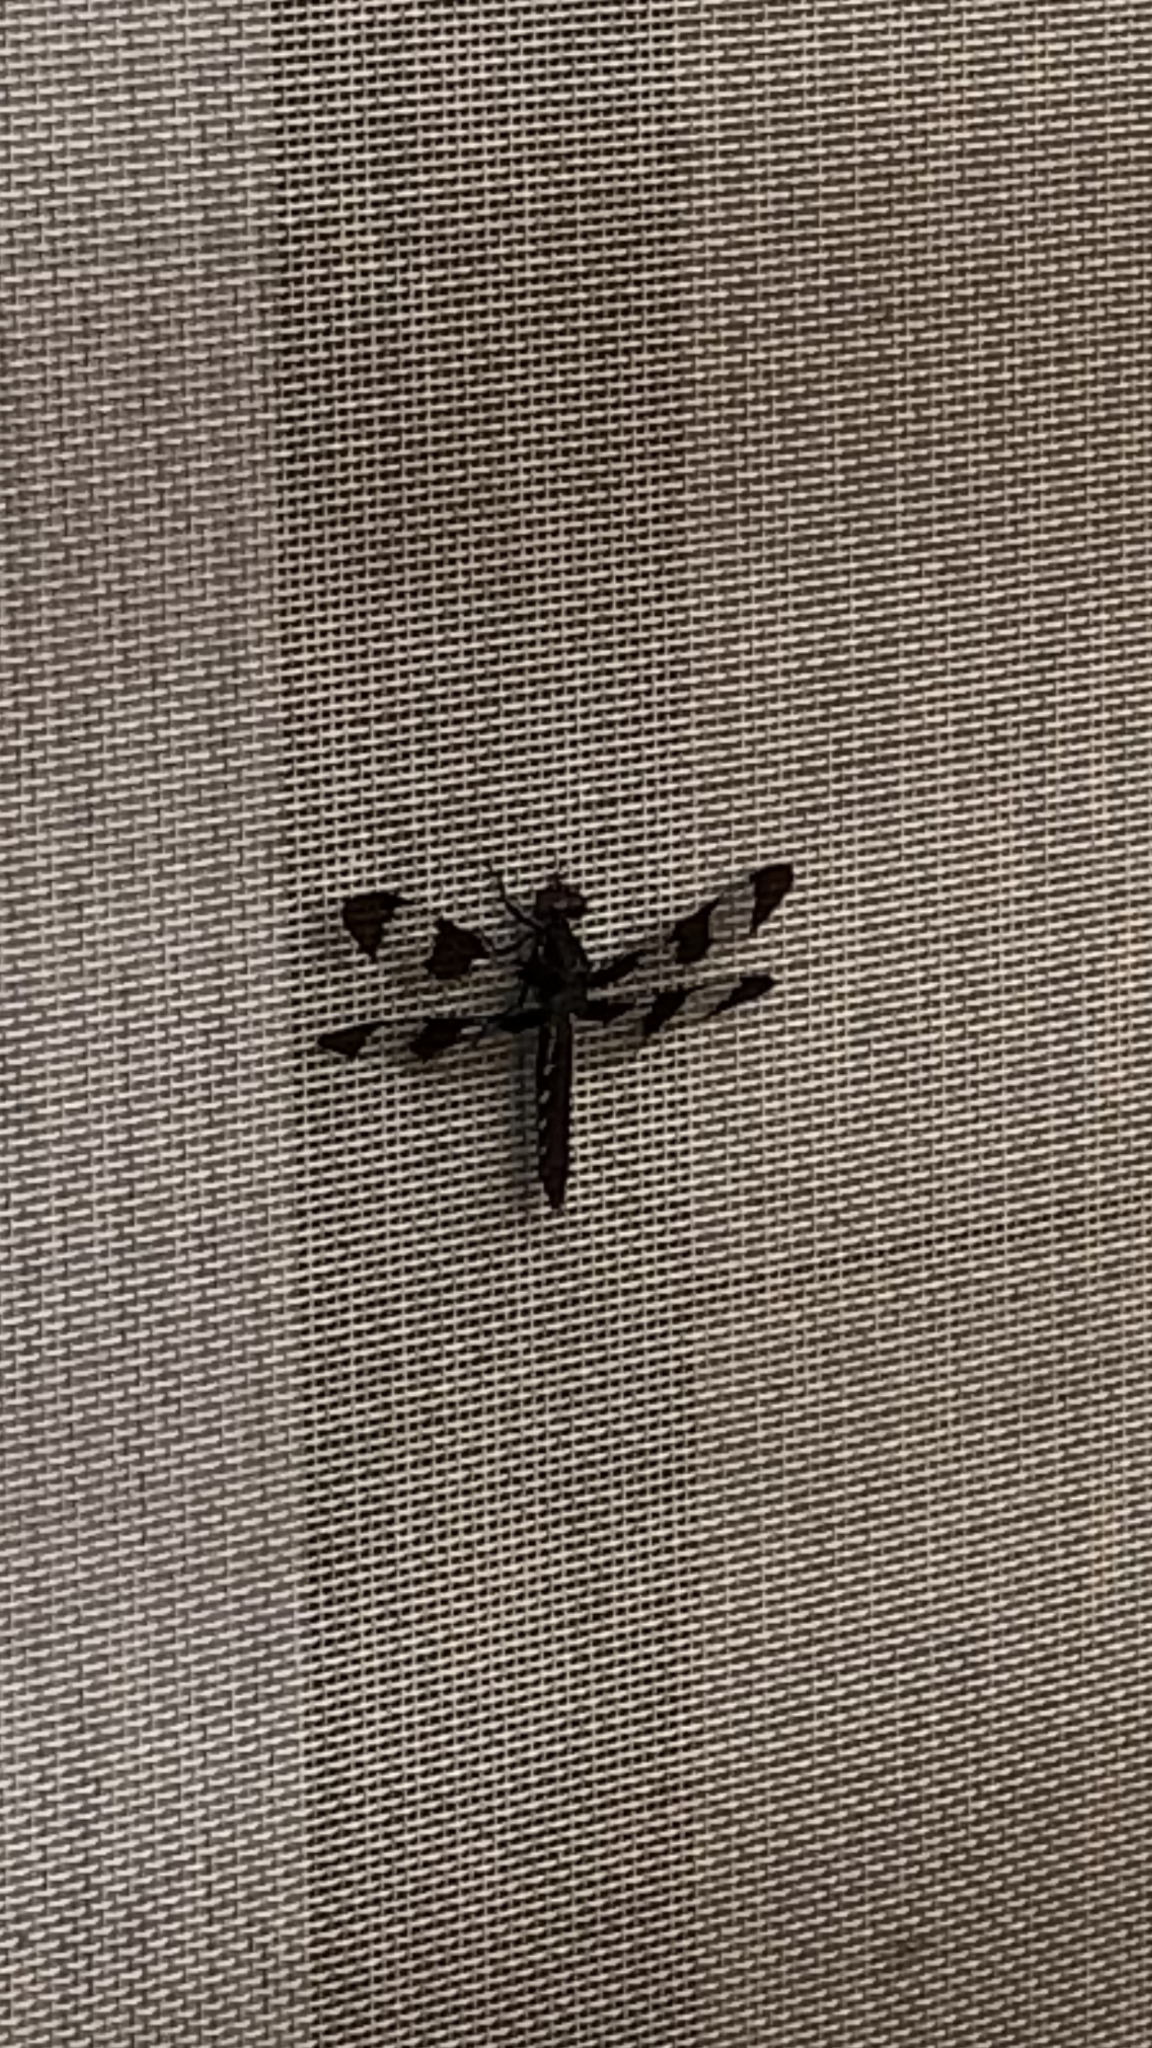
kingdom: Animalia
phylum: Arthropoda
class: Insecta
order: Odonata
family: Libellulidae
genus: Plathemis
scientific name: Plathemis lydia
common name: Common whitetail
